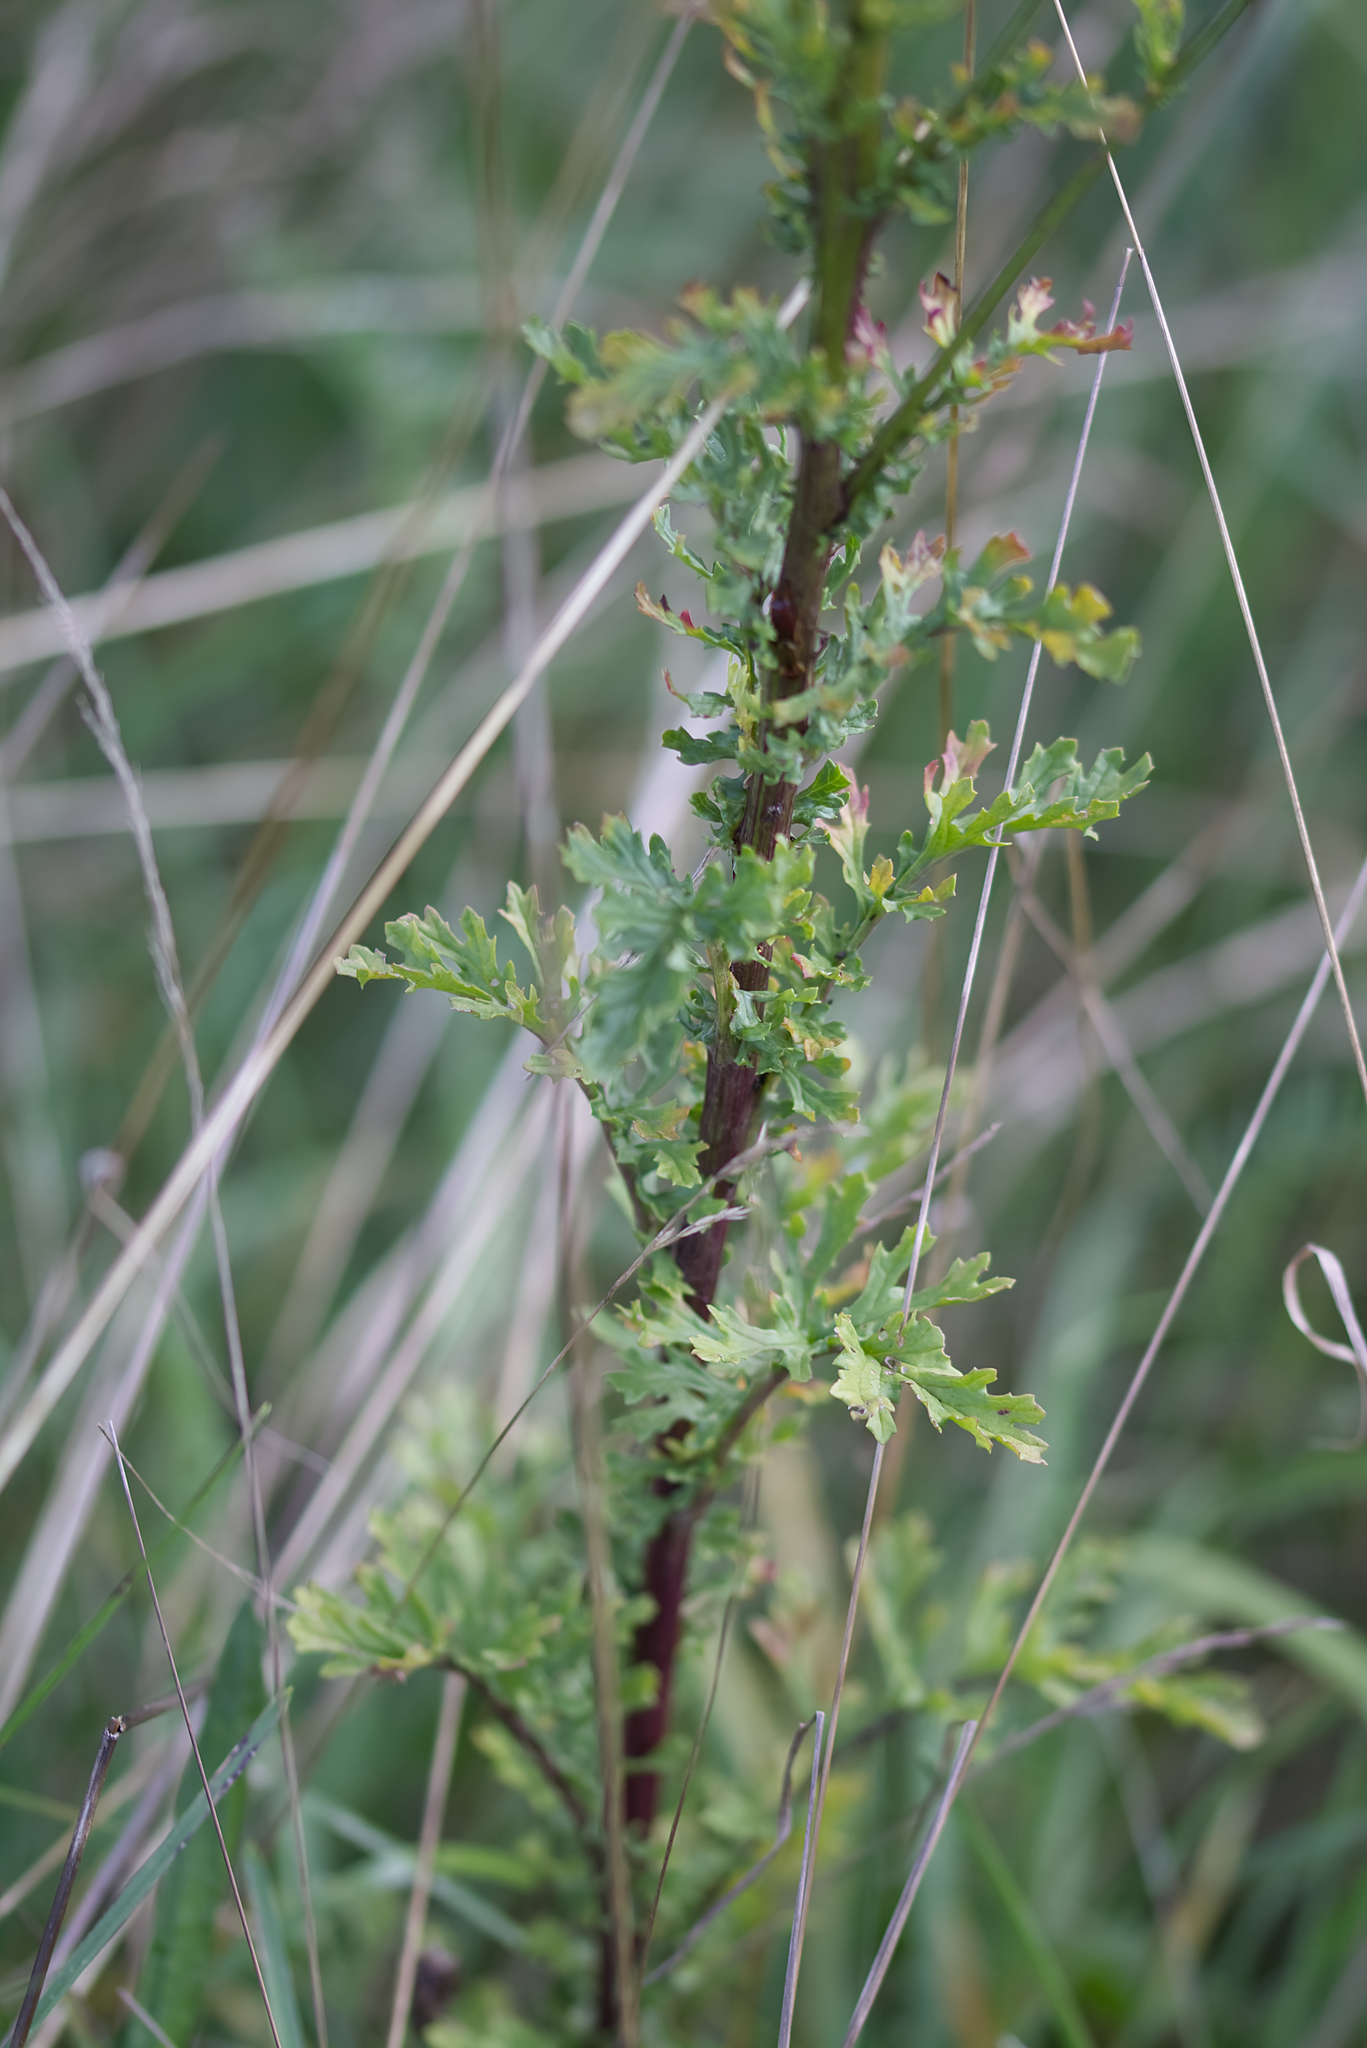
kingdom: Plantae
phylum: Tracheophyta
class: Magnoliopsida
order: Asterales
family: Asteraceae
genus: Jacobaea
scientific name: Jacobaea vulgaris
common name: Stinking willie
